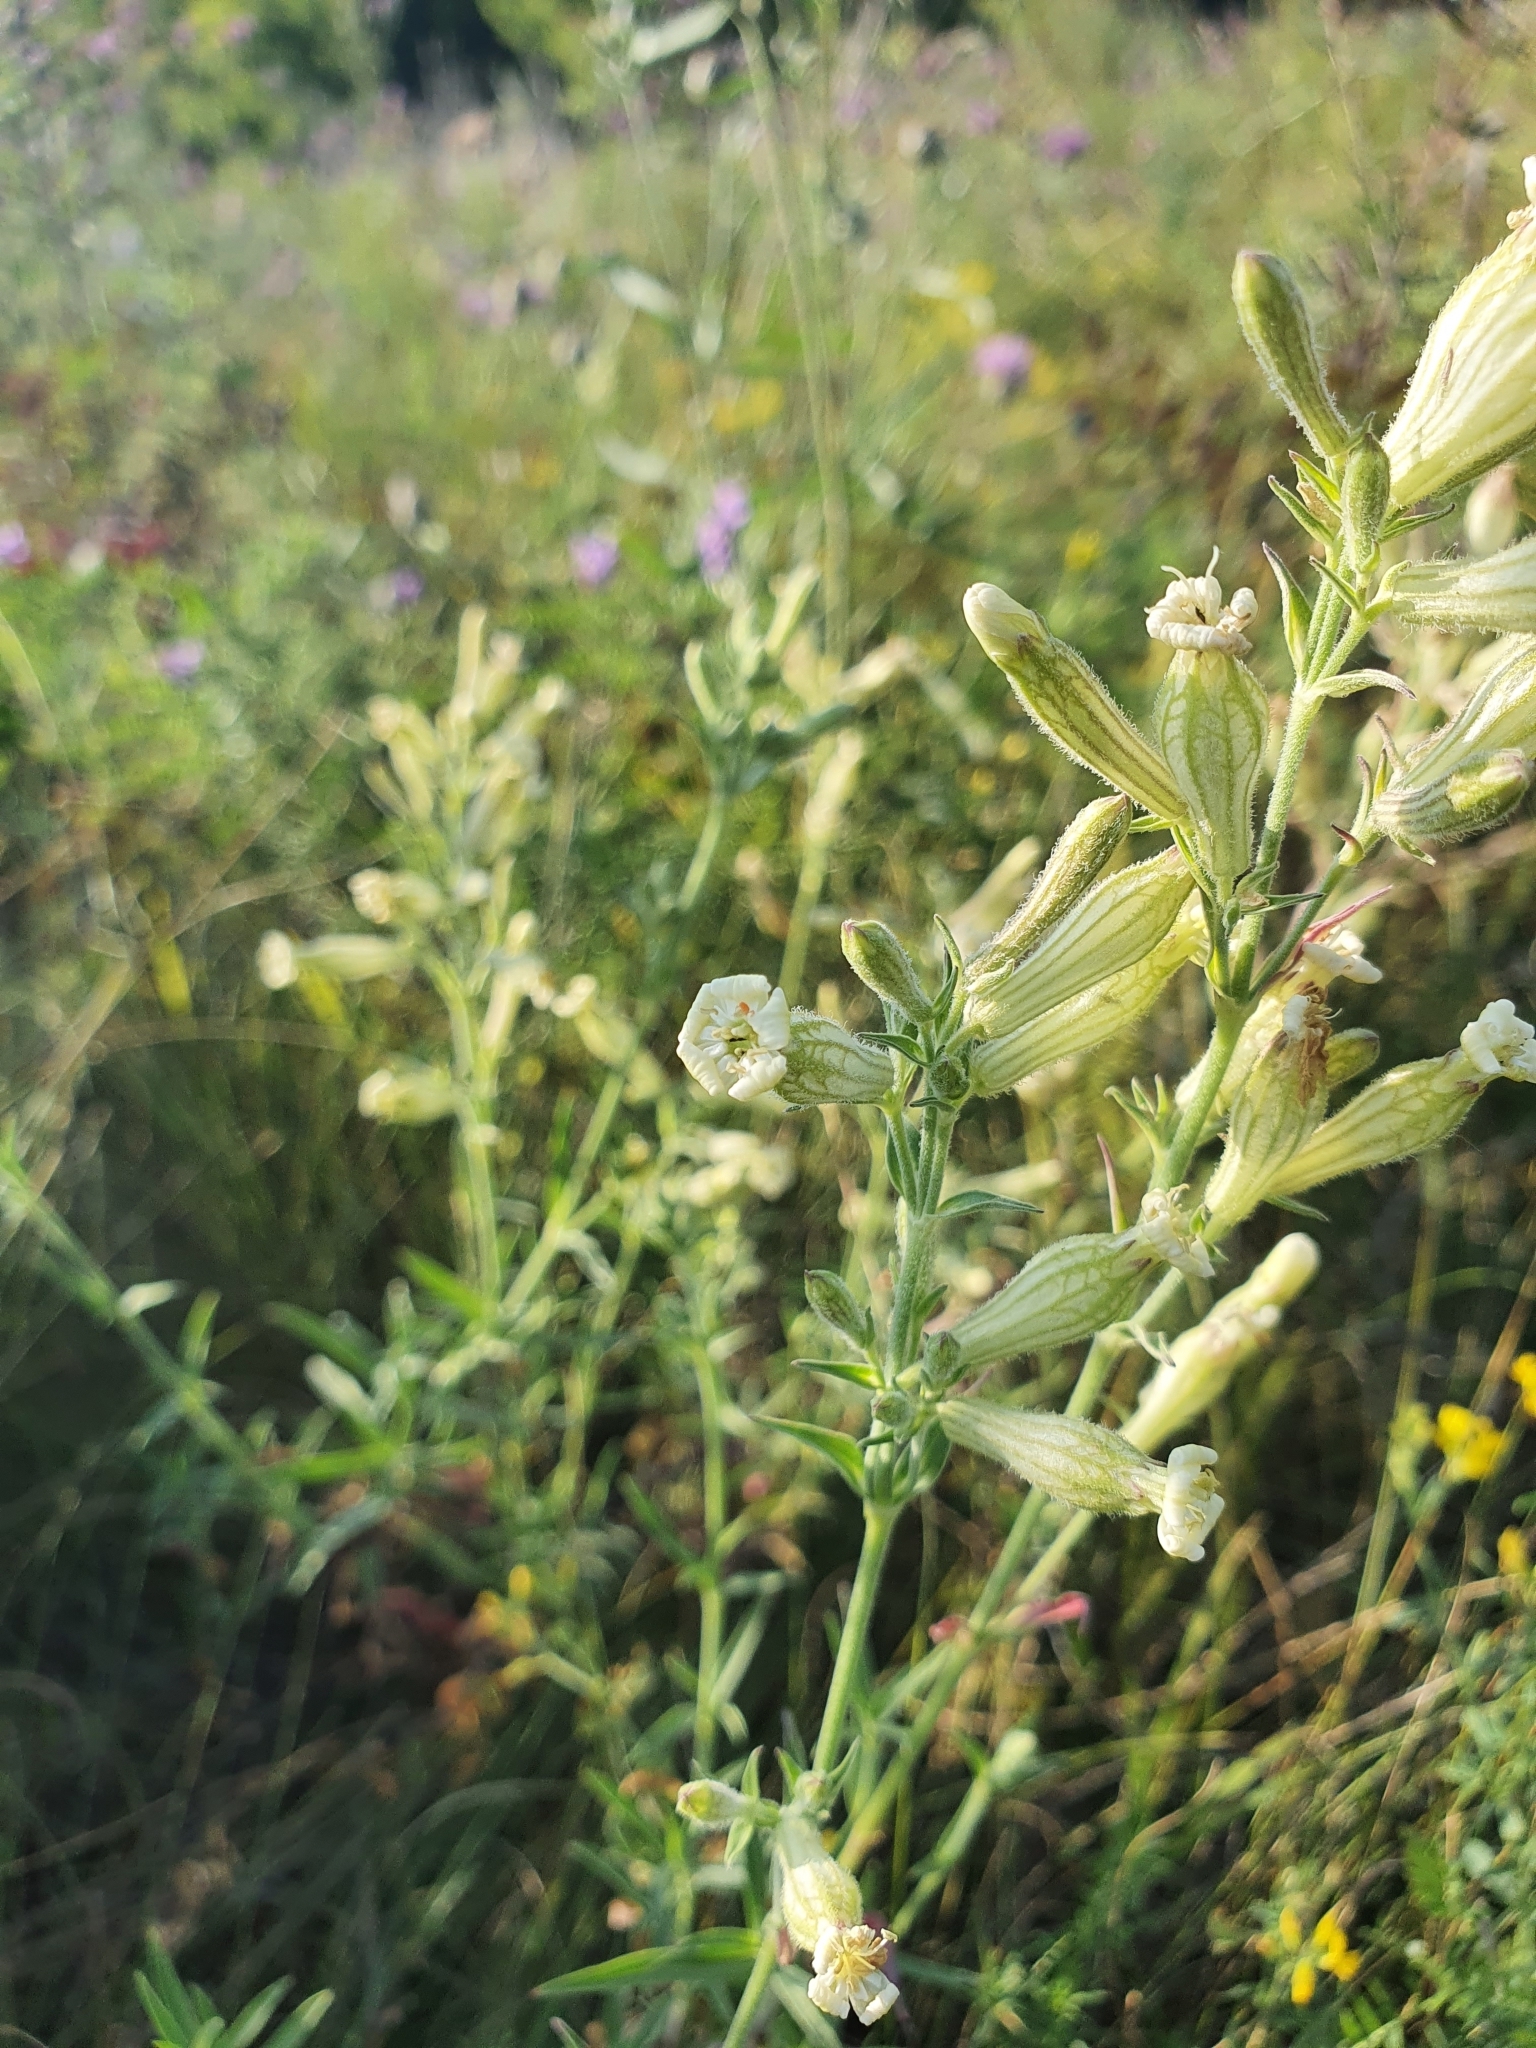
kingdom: Plantae
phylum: Tracheophyta
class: Magnoliopsida
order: Caryophyllales
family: Caryophyllaceae
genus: Silene
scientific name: Silene viscosa
